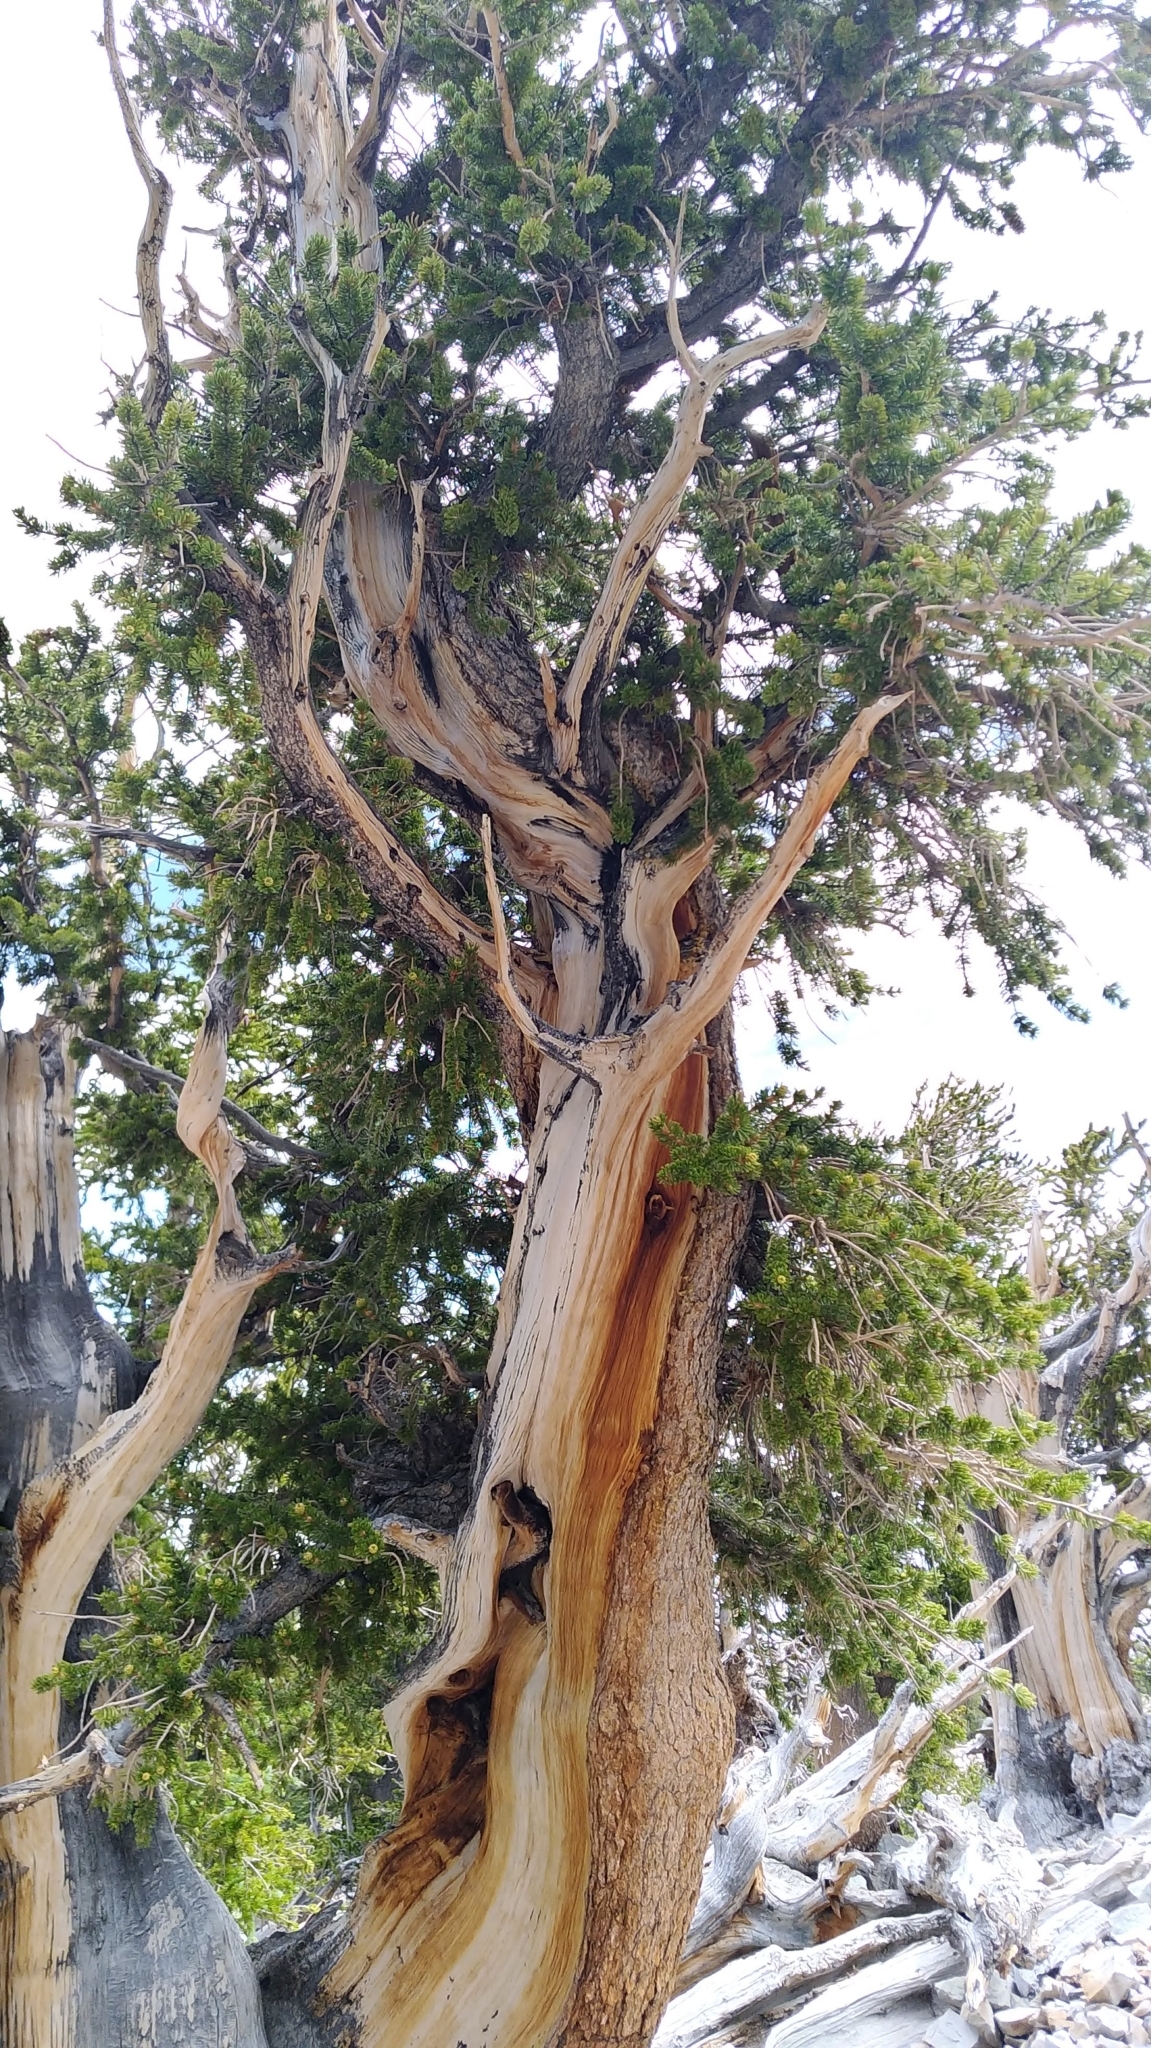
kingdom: Plantae
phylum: Tracheophyta
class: Pinopsida
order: Pinales
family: Pinaceae
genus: Pinus
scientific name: Pinus longaeva
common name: Intermountain bristlecone pine
